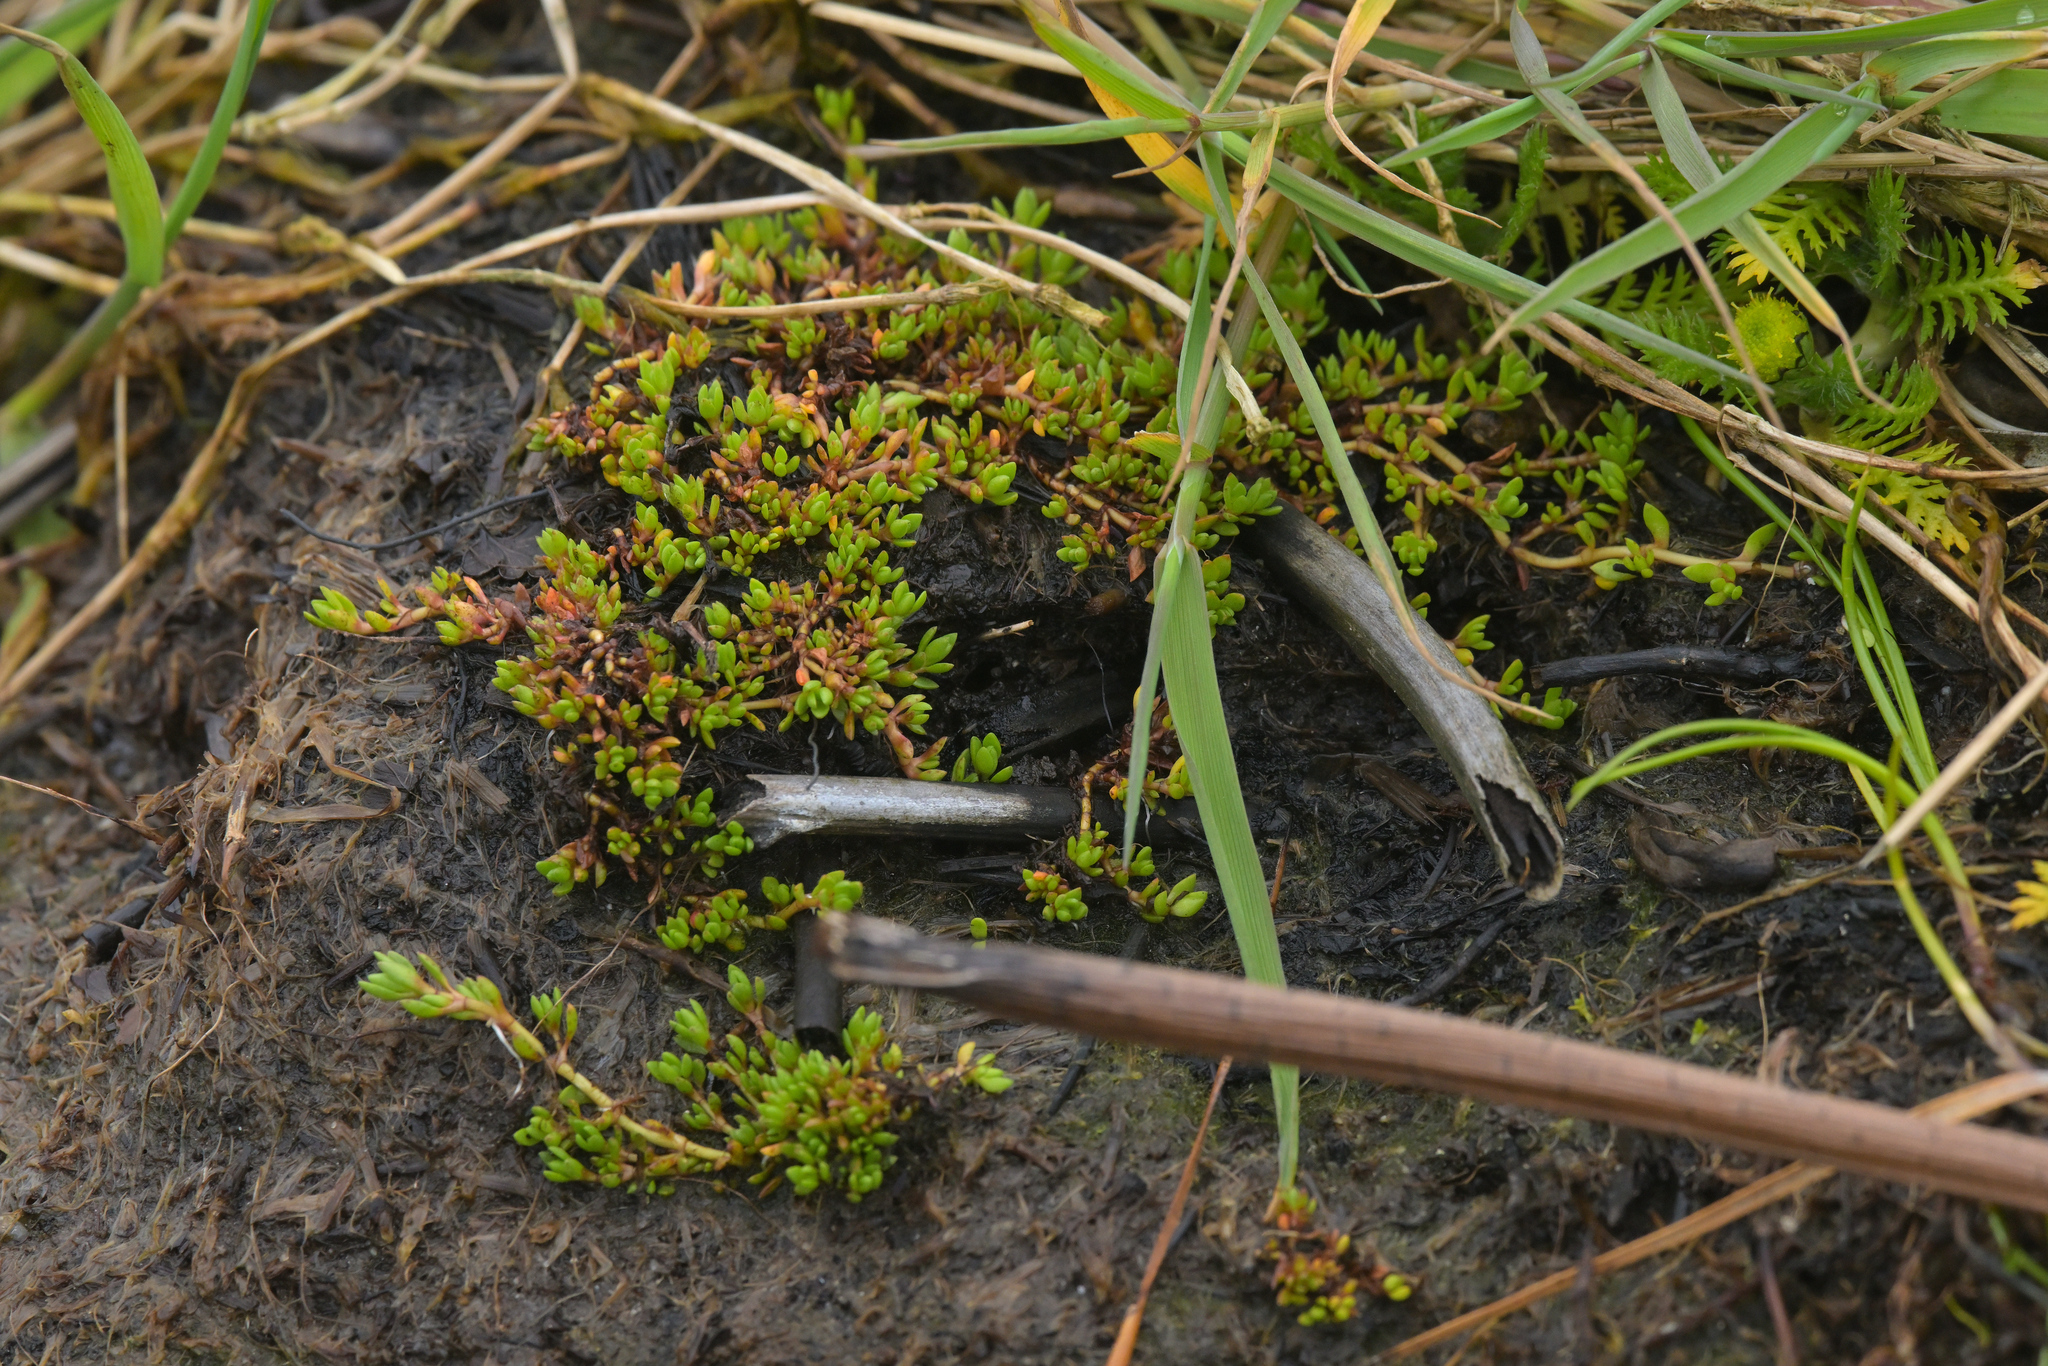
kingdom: Plantae
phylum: Tracheophyta
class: Magnoliopsida
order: Saxifragales
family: Crassulaceae
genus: Crassula
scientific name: Crassula moschata
